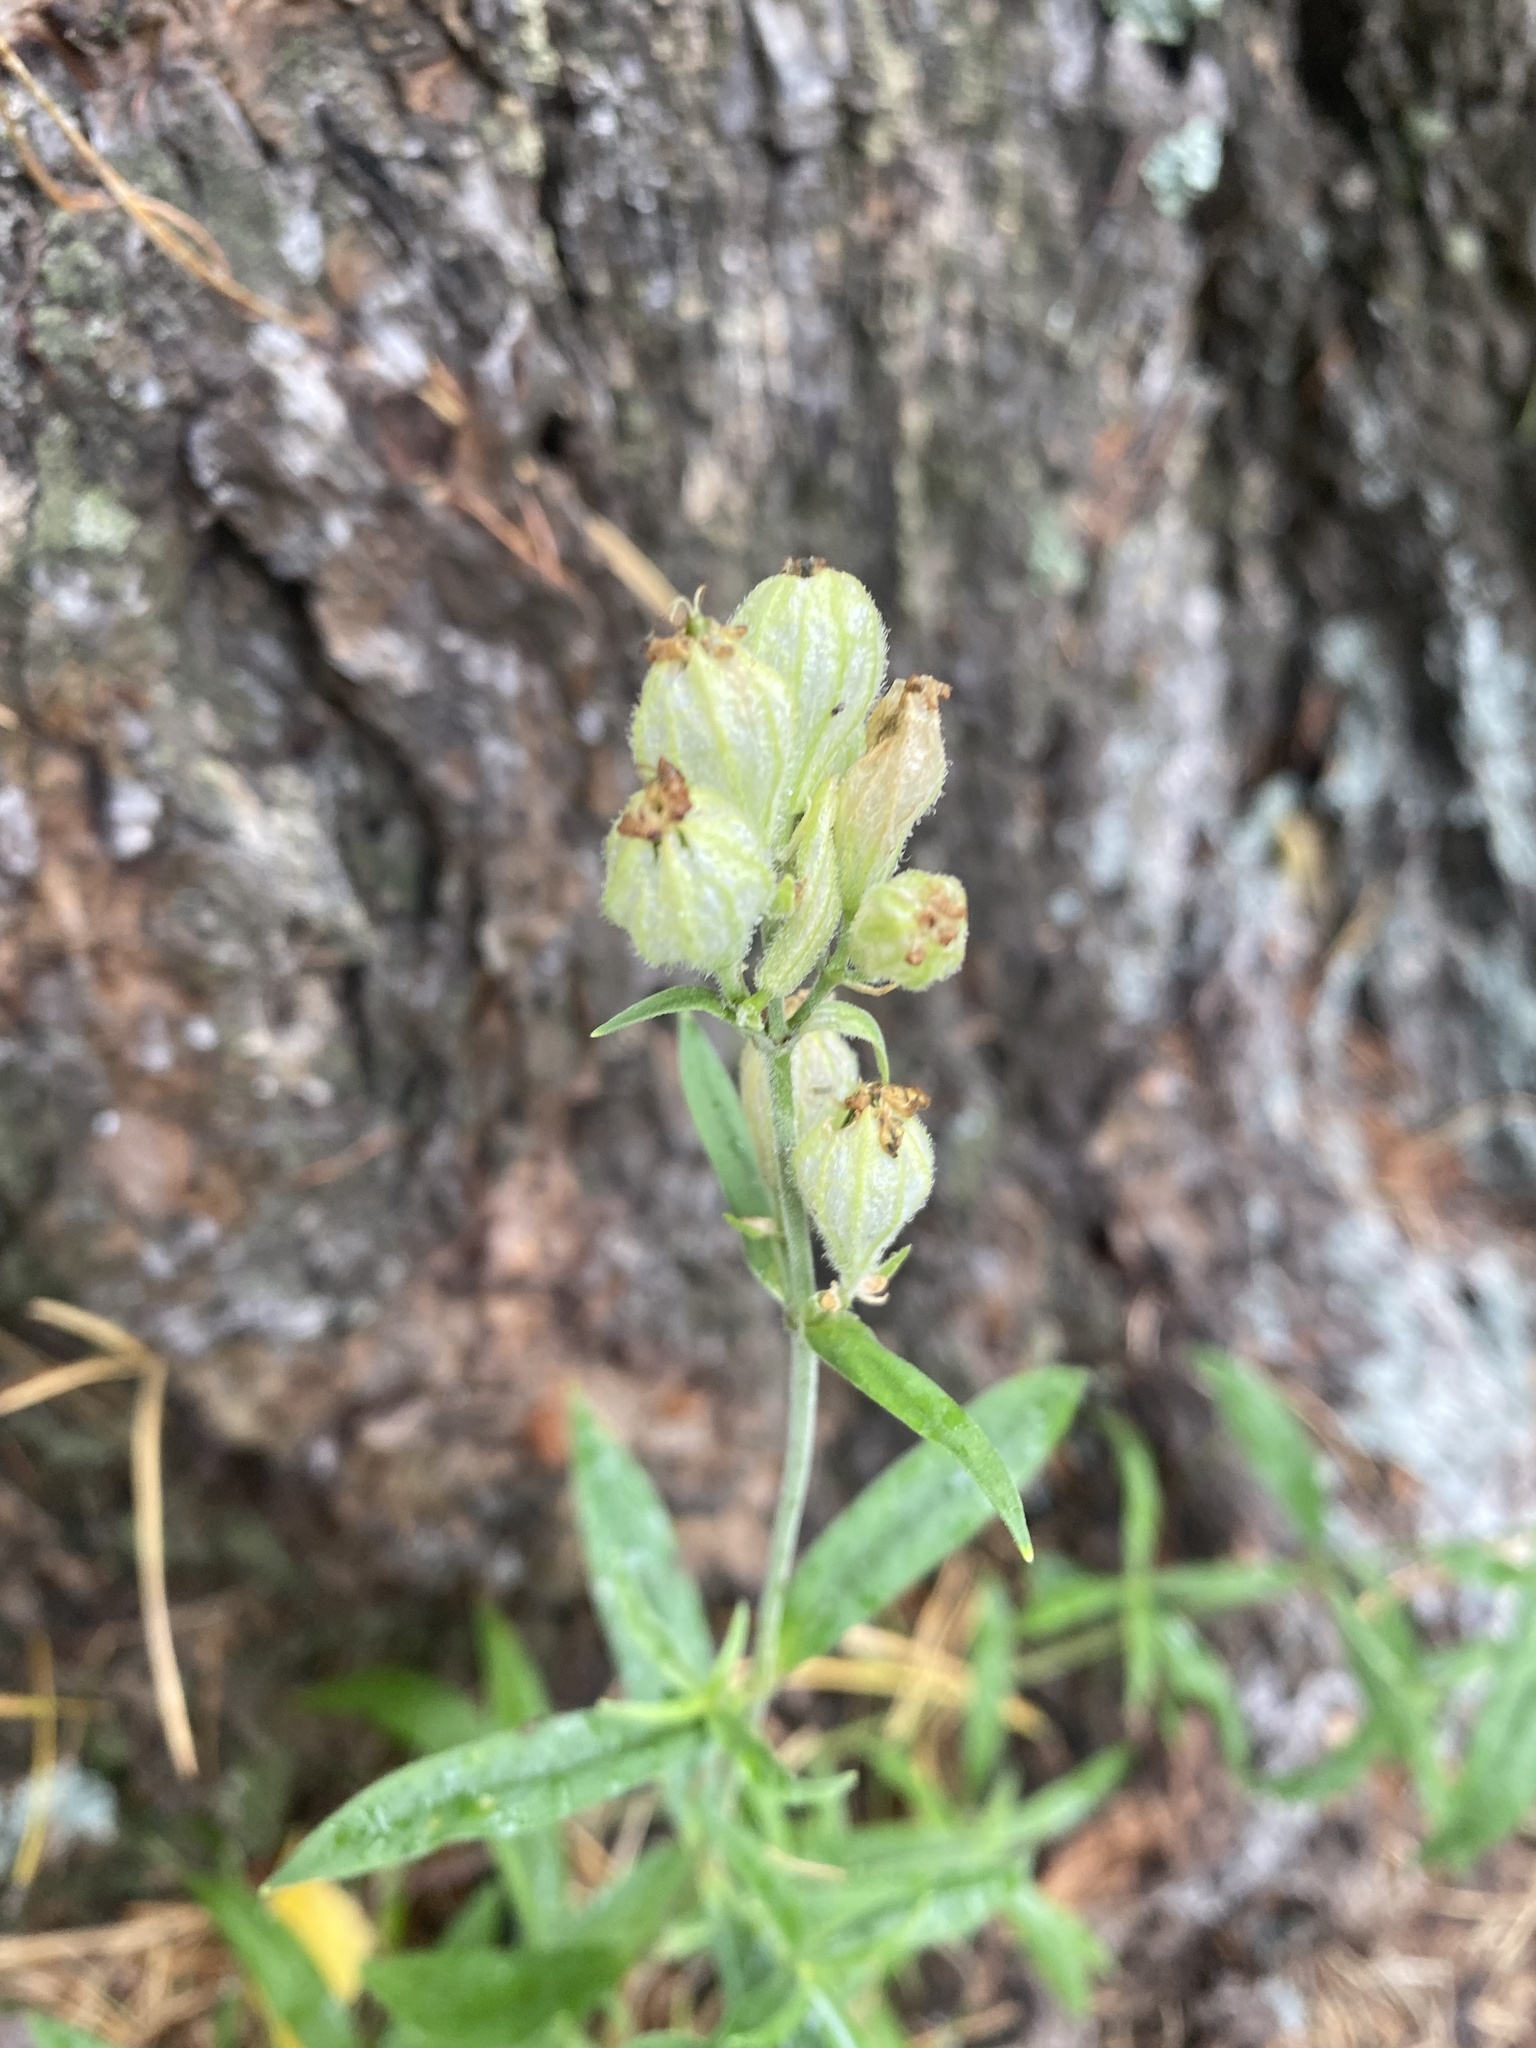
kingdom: Plantae
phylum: Tracheophyta
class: Magnoliopsida
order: Caryophyllales
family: Caryophyllaceae
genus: Silene
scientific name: Silene amoena
